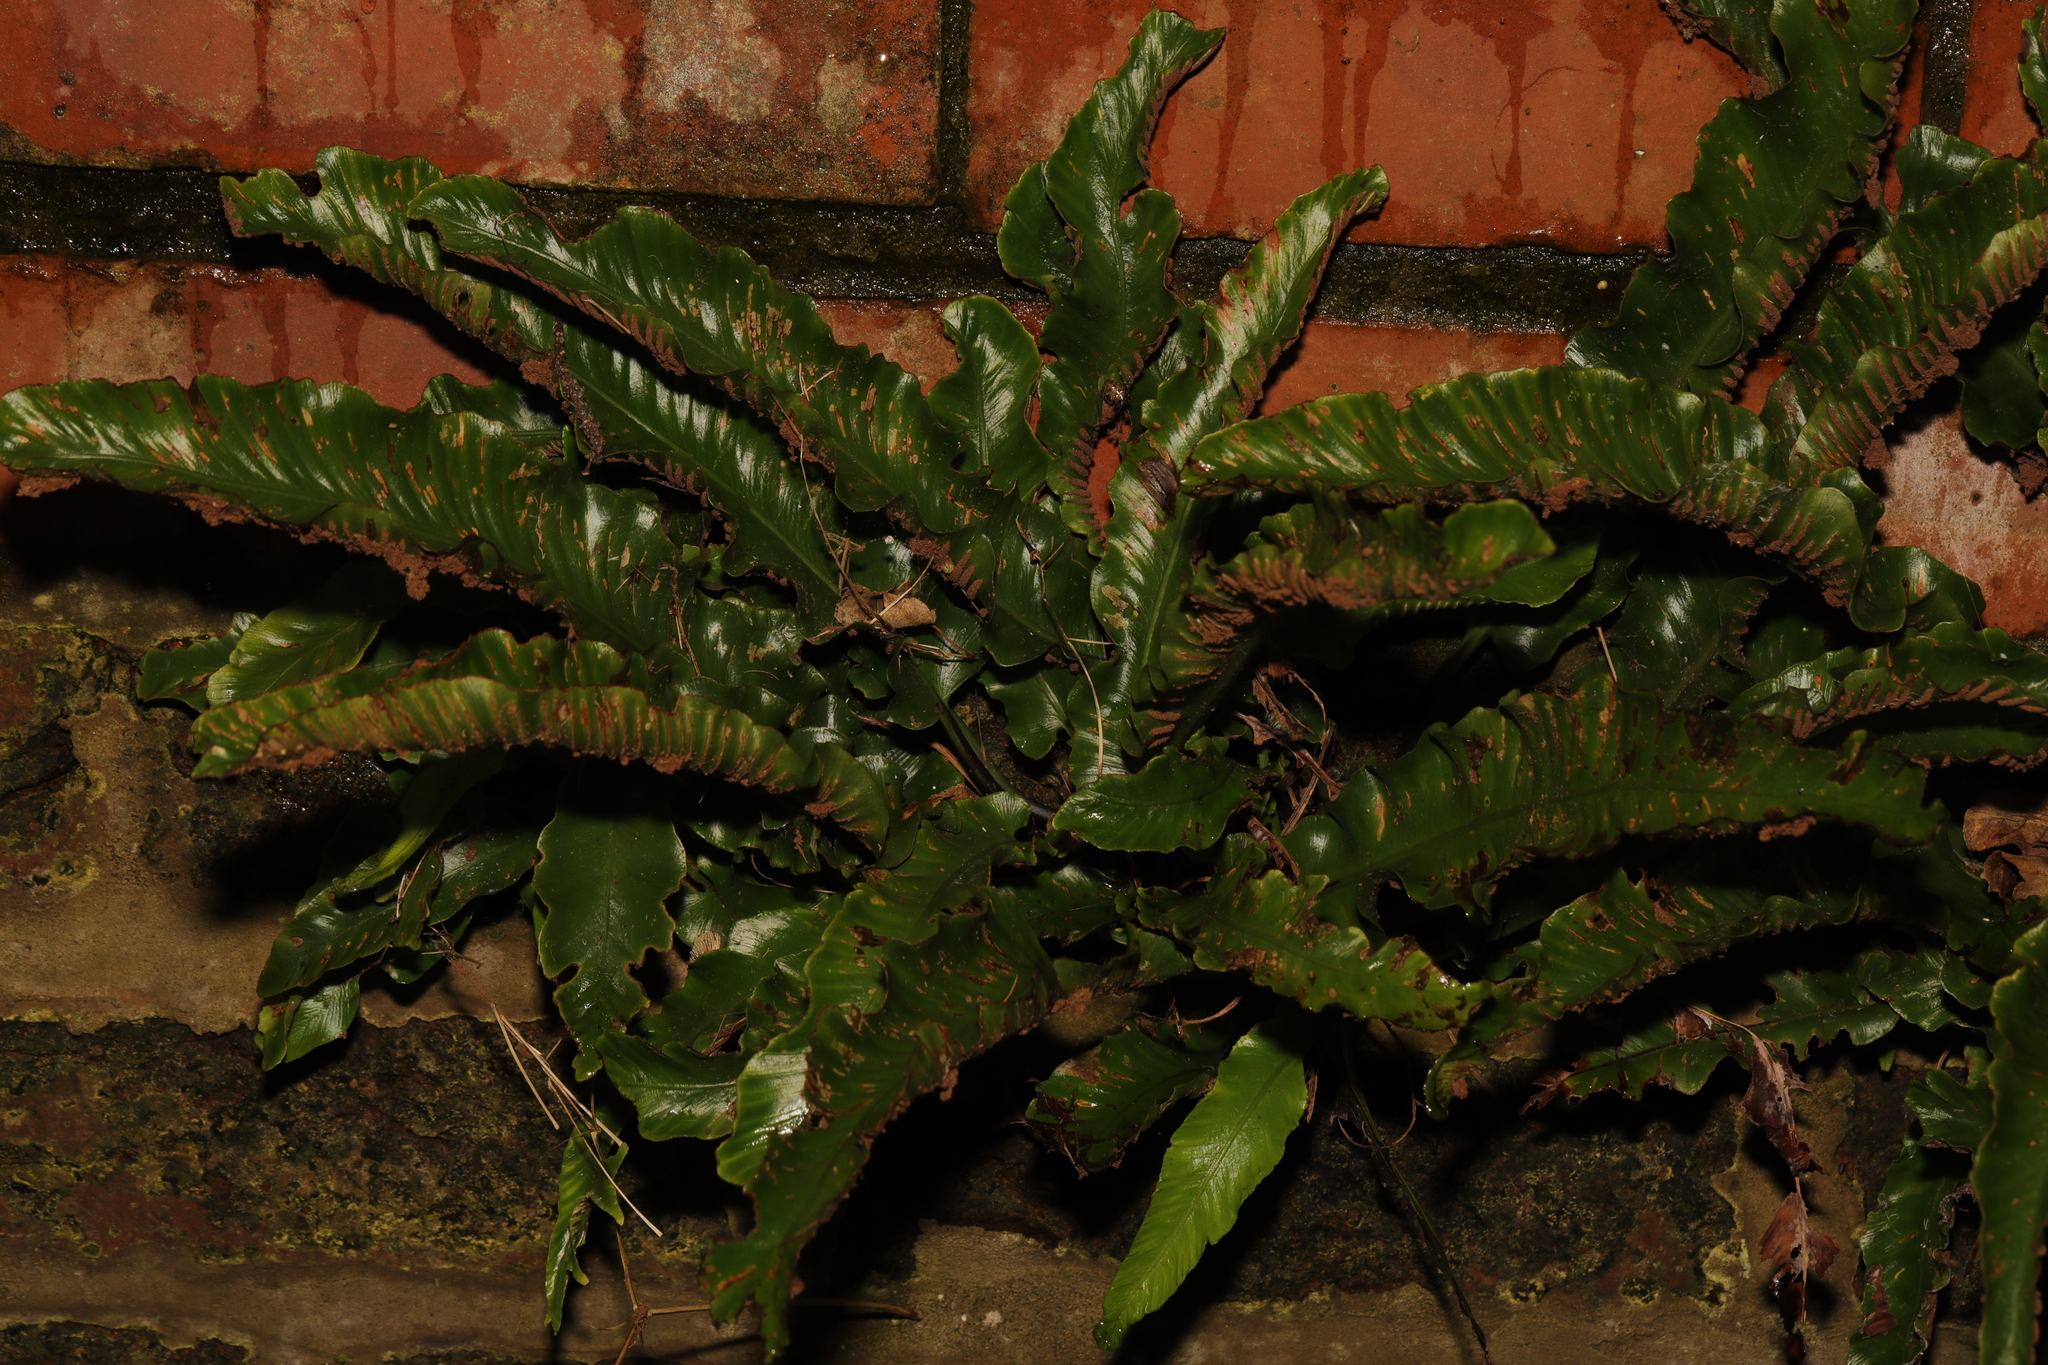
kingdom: Plantae
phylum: Tracheophyta
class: Polypodiopsida
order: Polypodiales
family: Aspleniaceae
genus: Asplenium
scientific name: Asplenium scolopendrium
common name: Hart's-tongue fern
